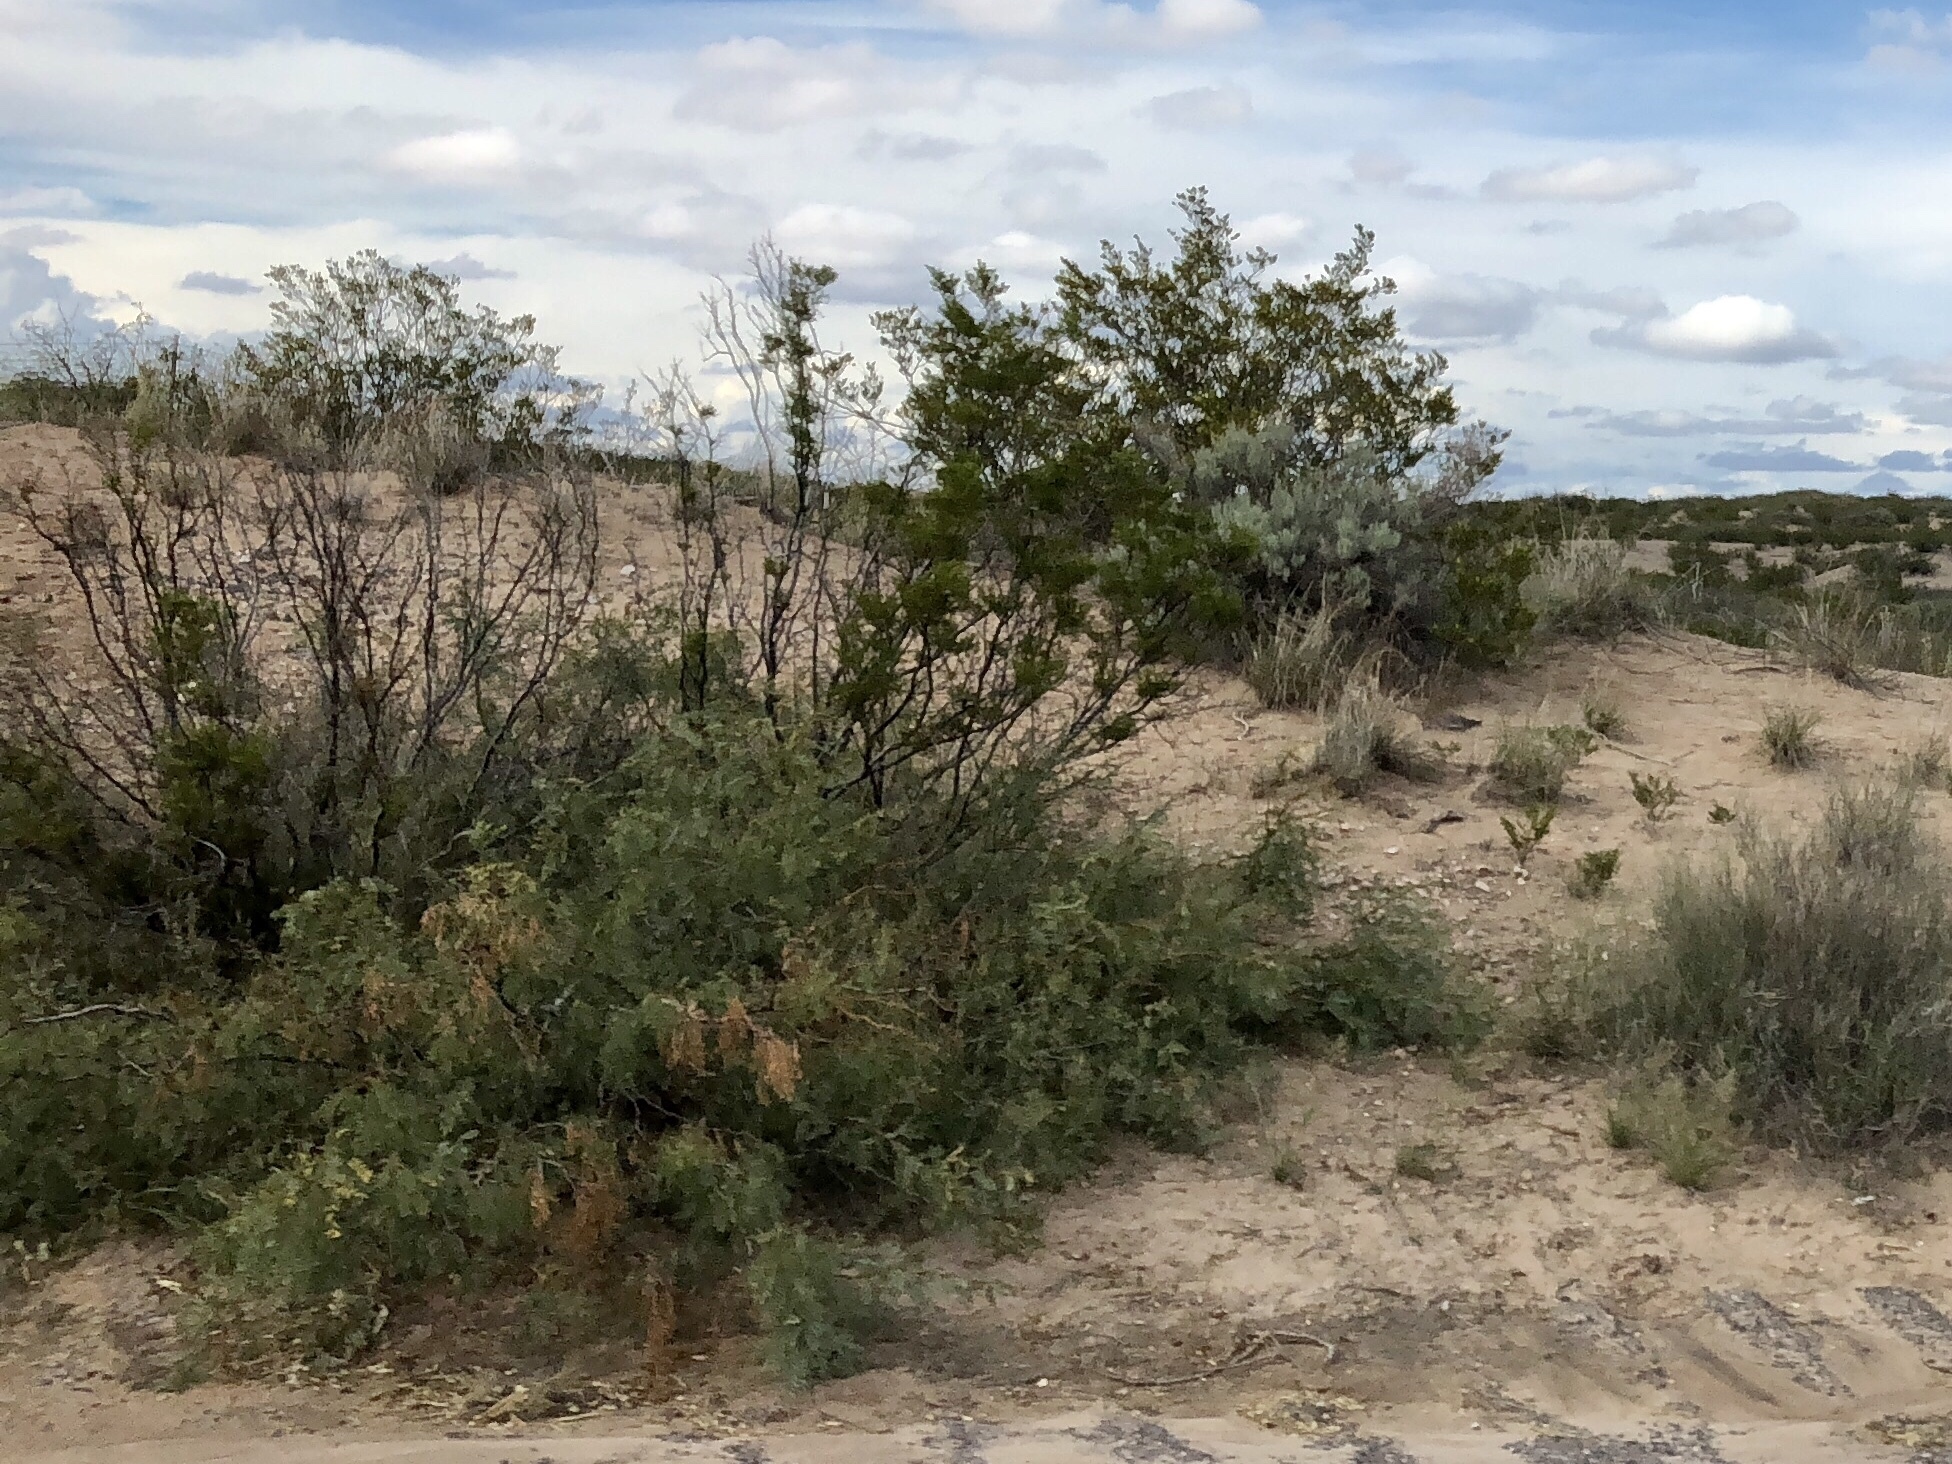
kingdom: Plantae
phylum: Tracheophyta
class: Magnoliopsida
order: Fabales
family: Fabaceae
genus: Prosopis
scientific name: Prosopis glandulosa
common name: Honey mesquite
